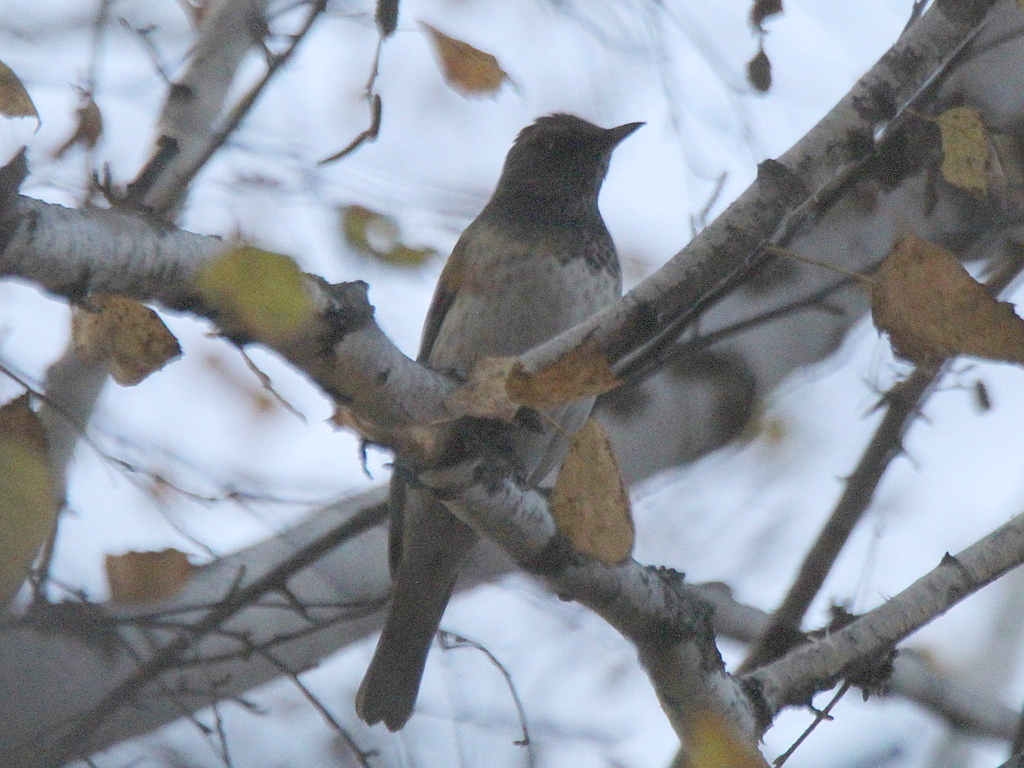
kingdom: Animalia
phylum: Chordata
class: Aves
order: Passeriformes
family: Turdidae
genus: Turdus
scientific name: Turdus atrogularis
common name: Black-throated thrush
